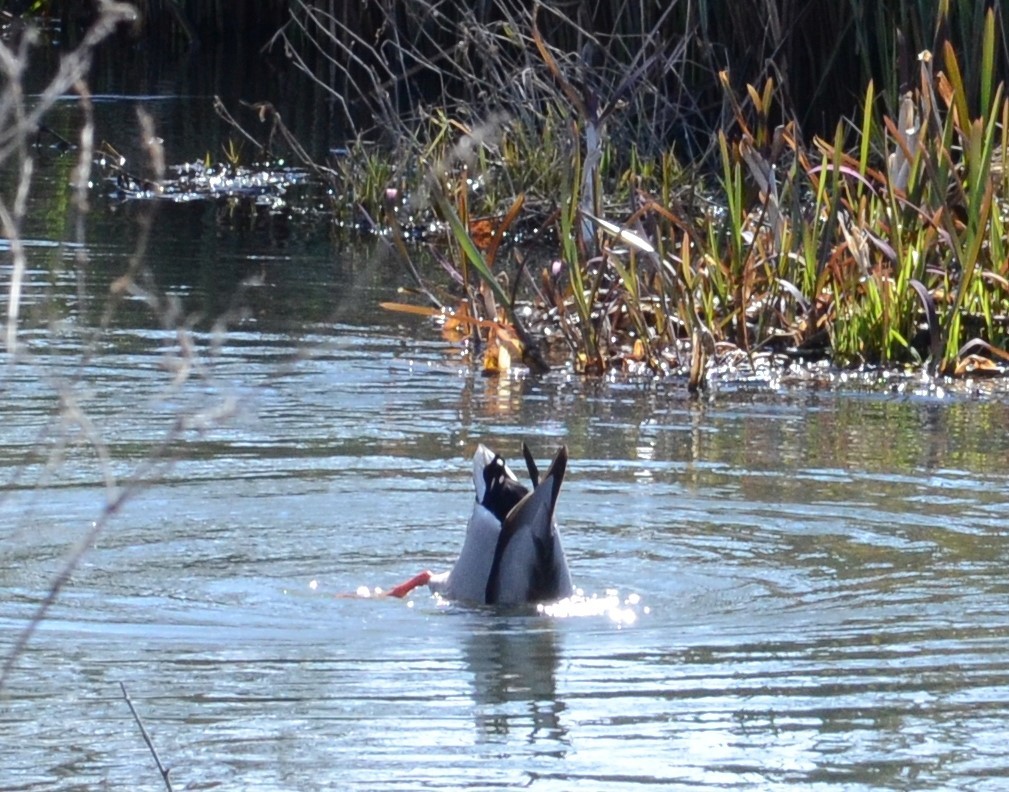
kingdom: Animalia
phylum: Chordata
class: Aves
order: Anseriformes
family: Anatidae
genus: Anas
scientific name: Anas platyrhynchos
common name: Mallard
